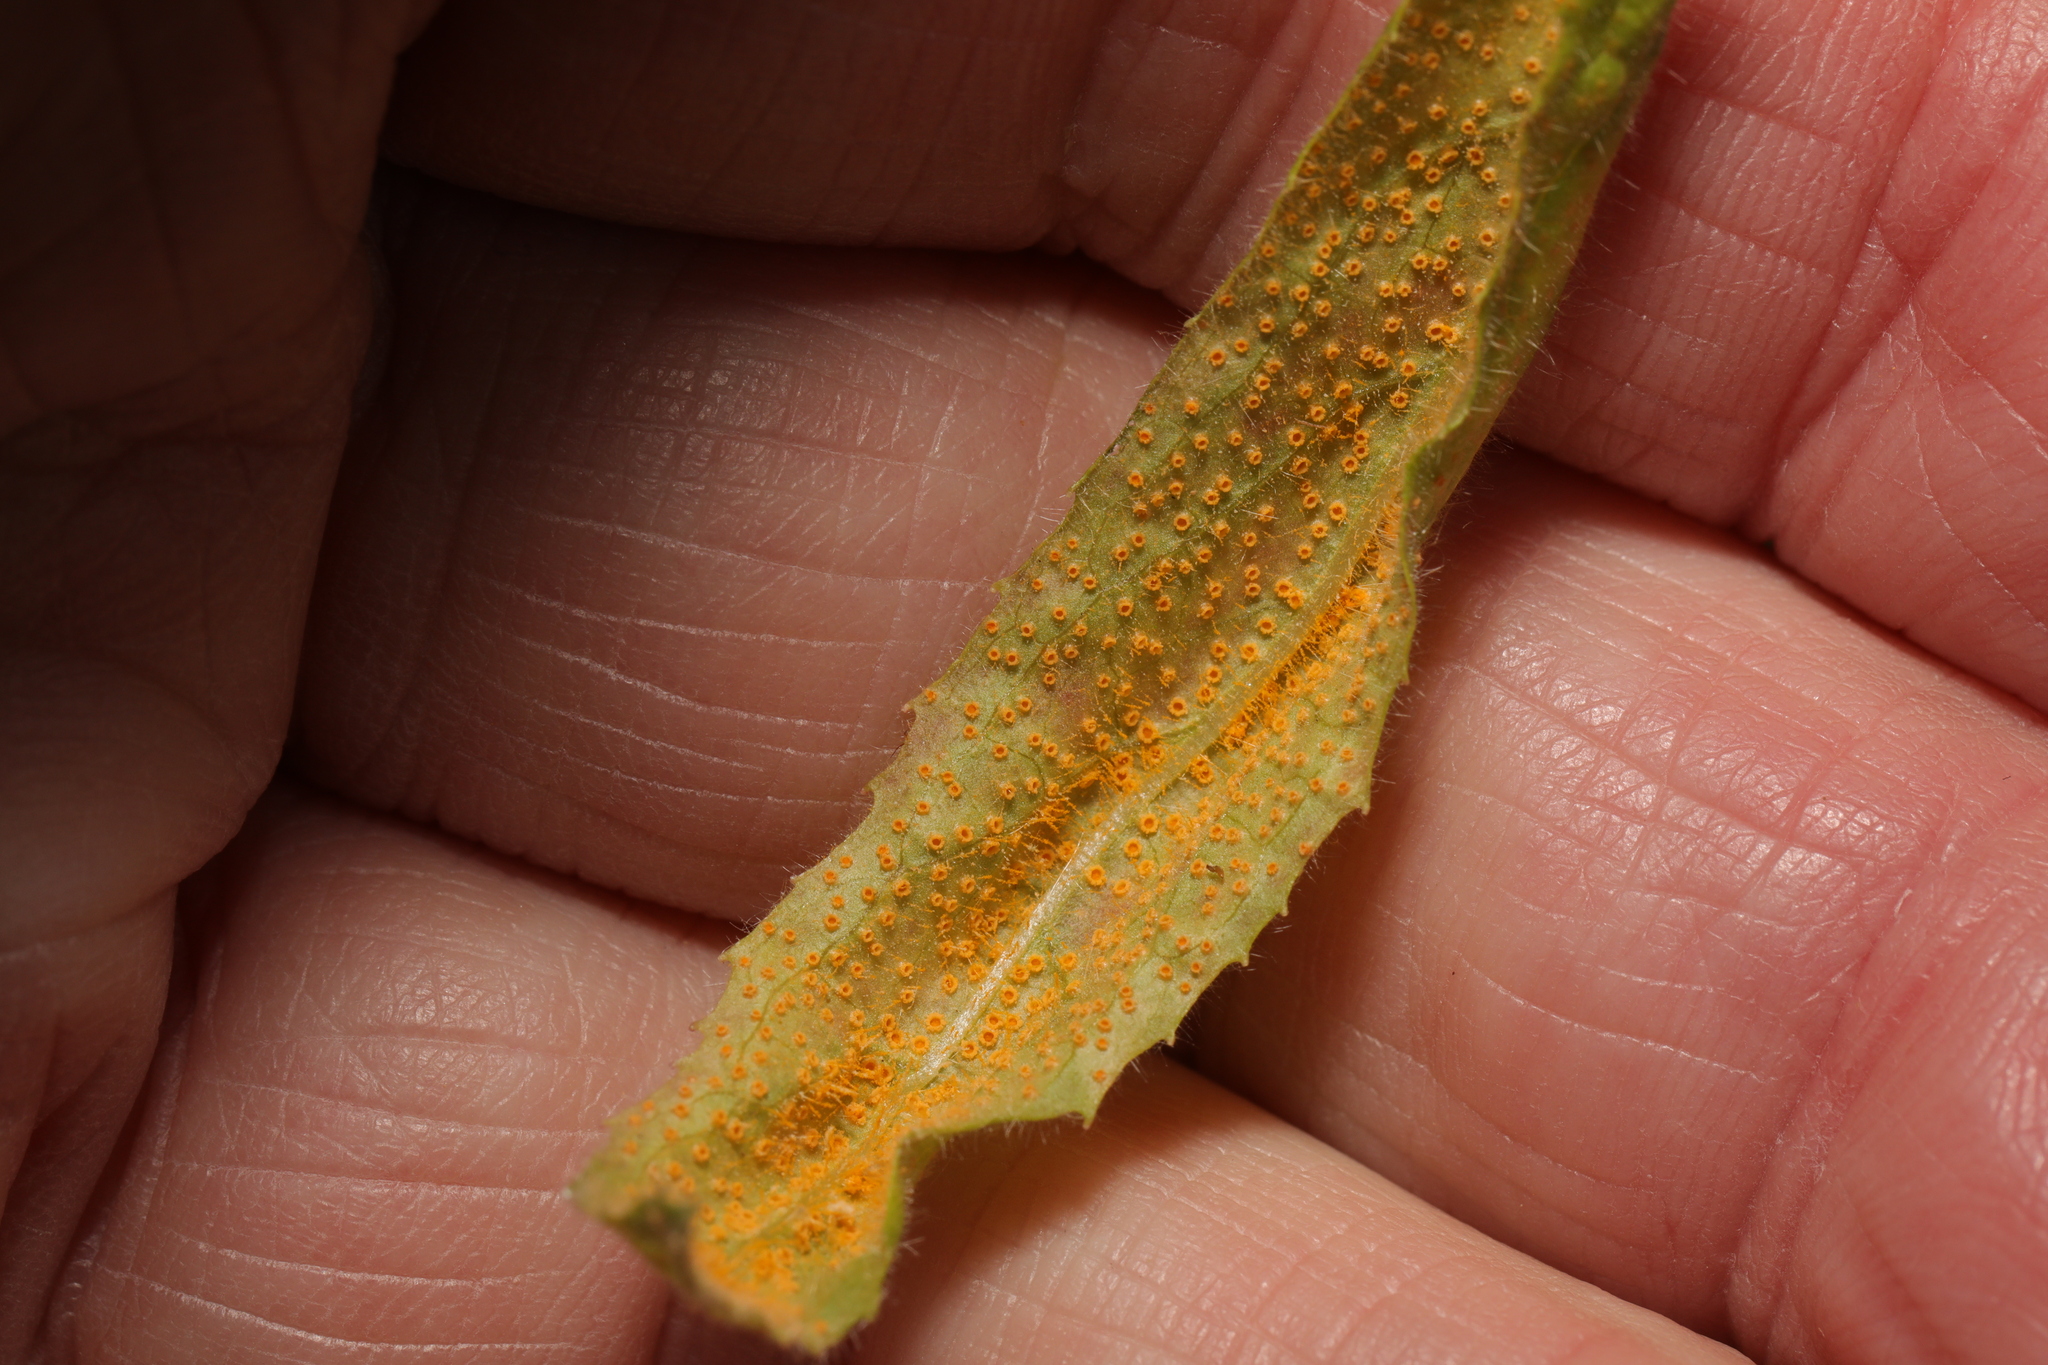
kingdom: Fungi
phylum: Basidiomycota
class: Pucciniomycetes
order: Pucciniales
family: Pucciniaceae
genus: Puccinia
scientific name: Puccinia pulverulenta
